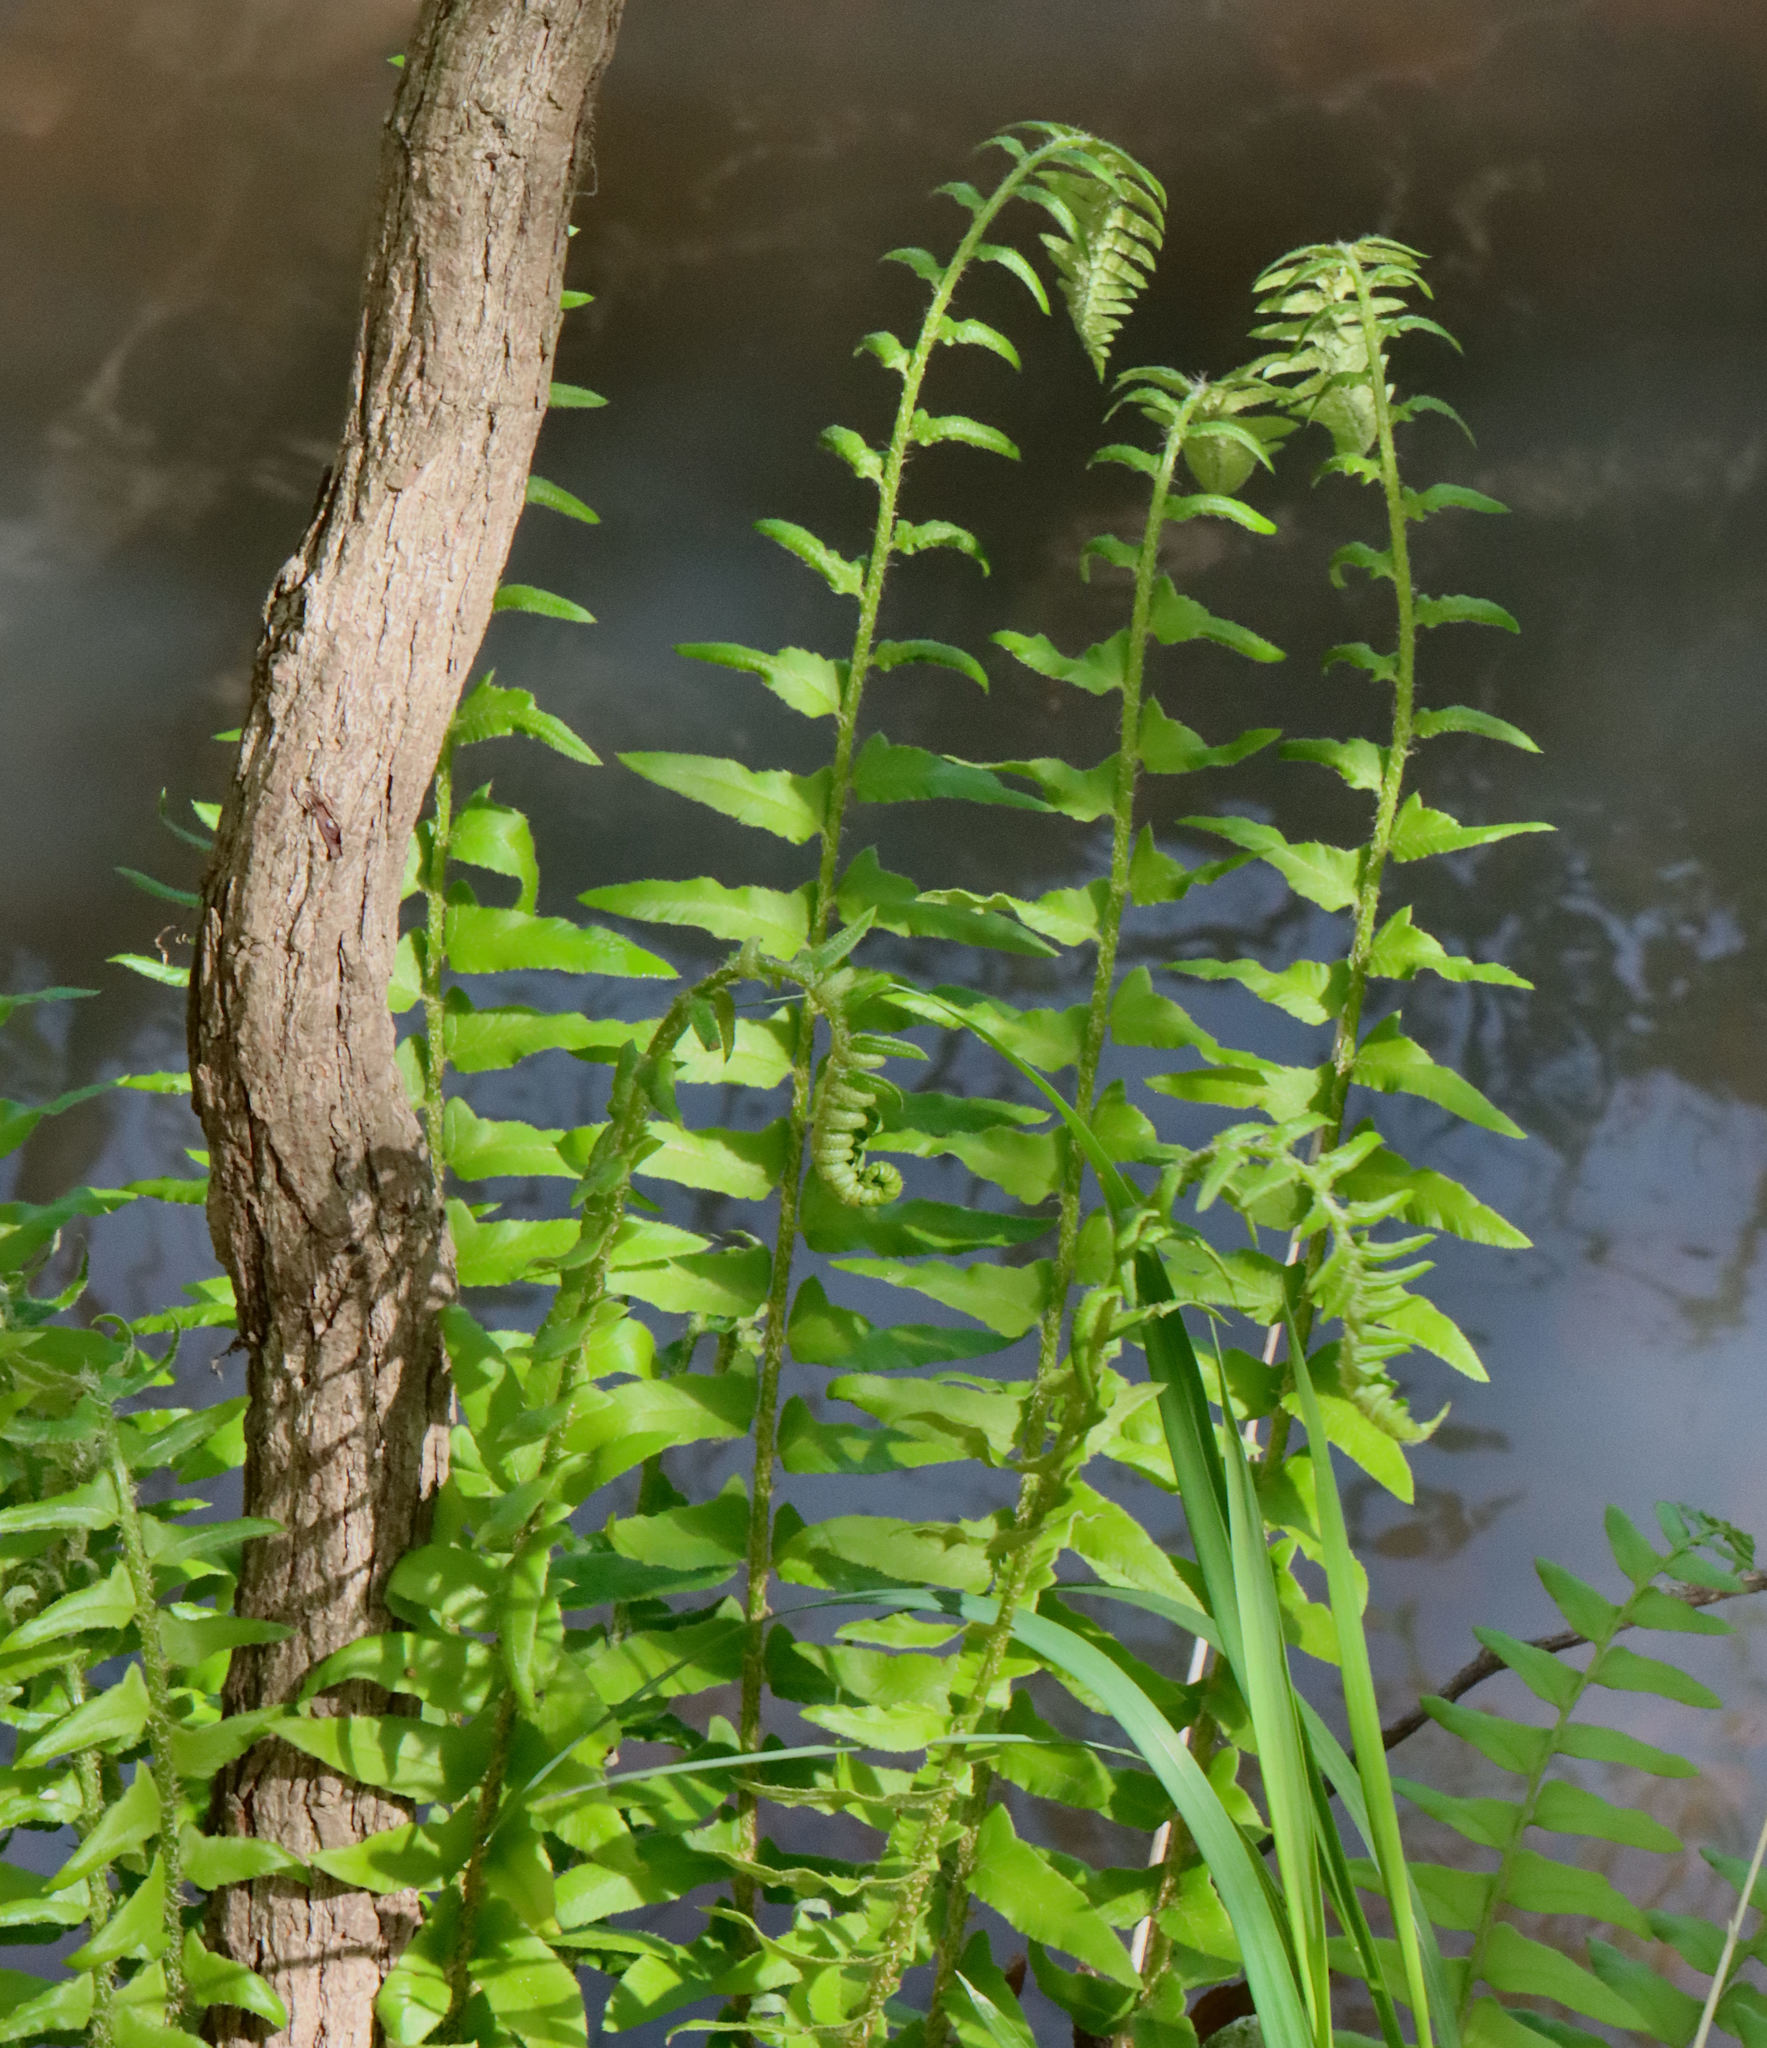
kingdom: Plantae
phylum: Tracheophyta
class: Polypodiopsida
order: Polypodiales
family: Dryopteridaceae
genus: Polystichum
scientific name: Polystichum acrostichoides
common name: Christmas fern
